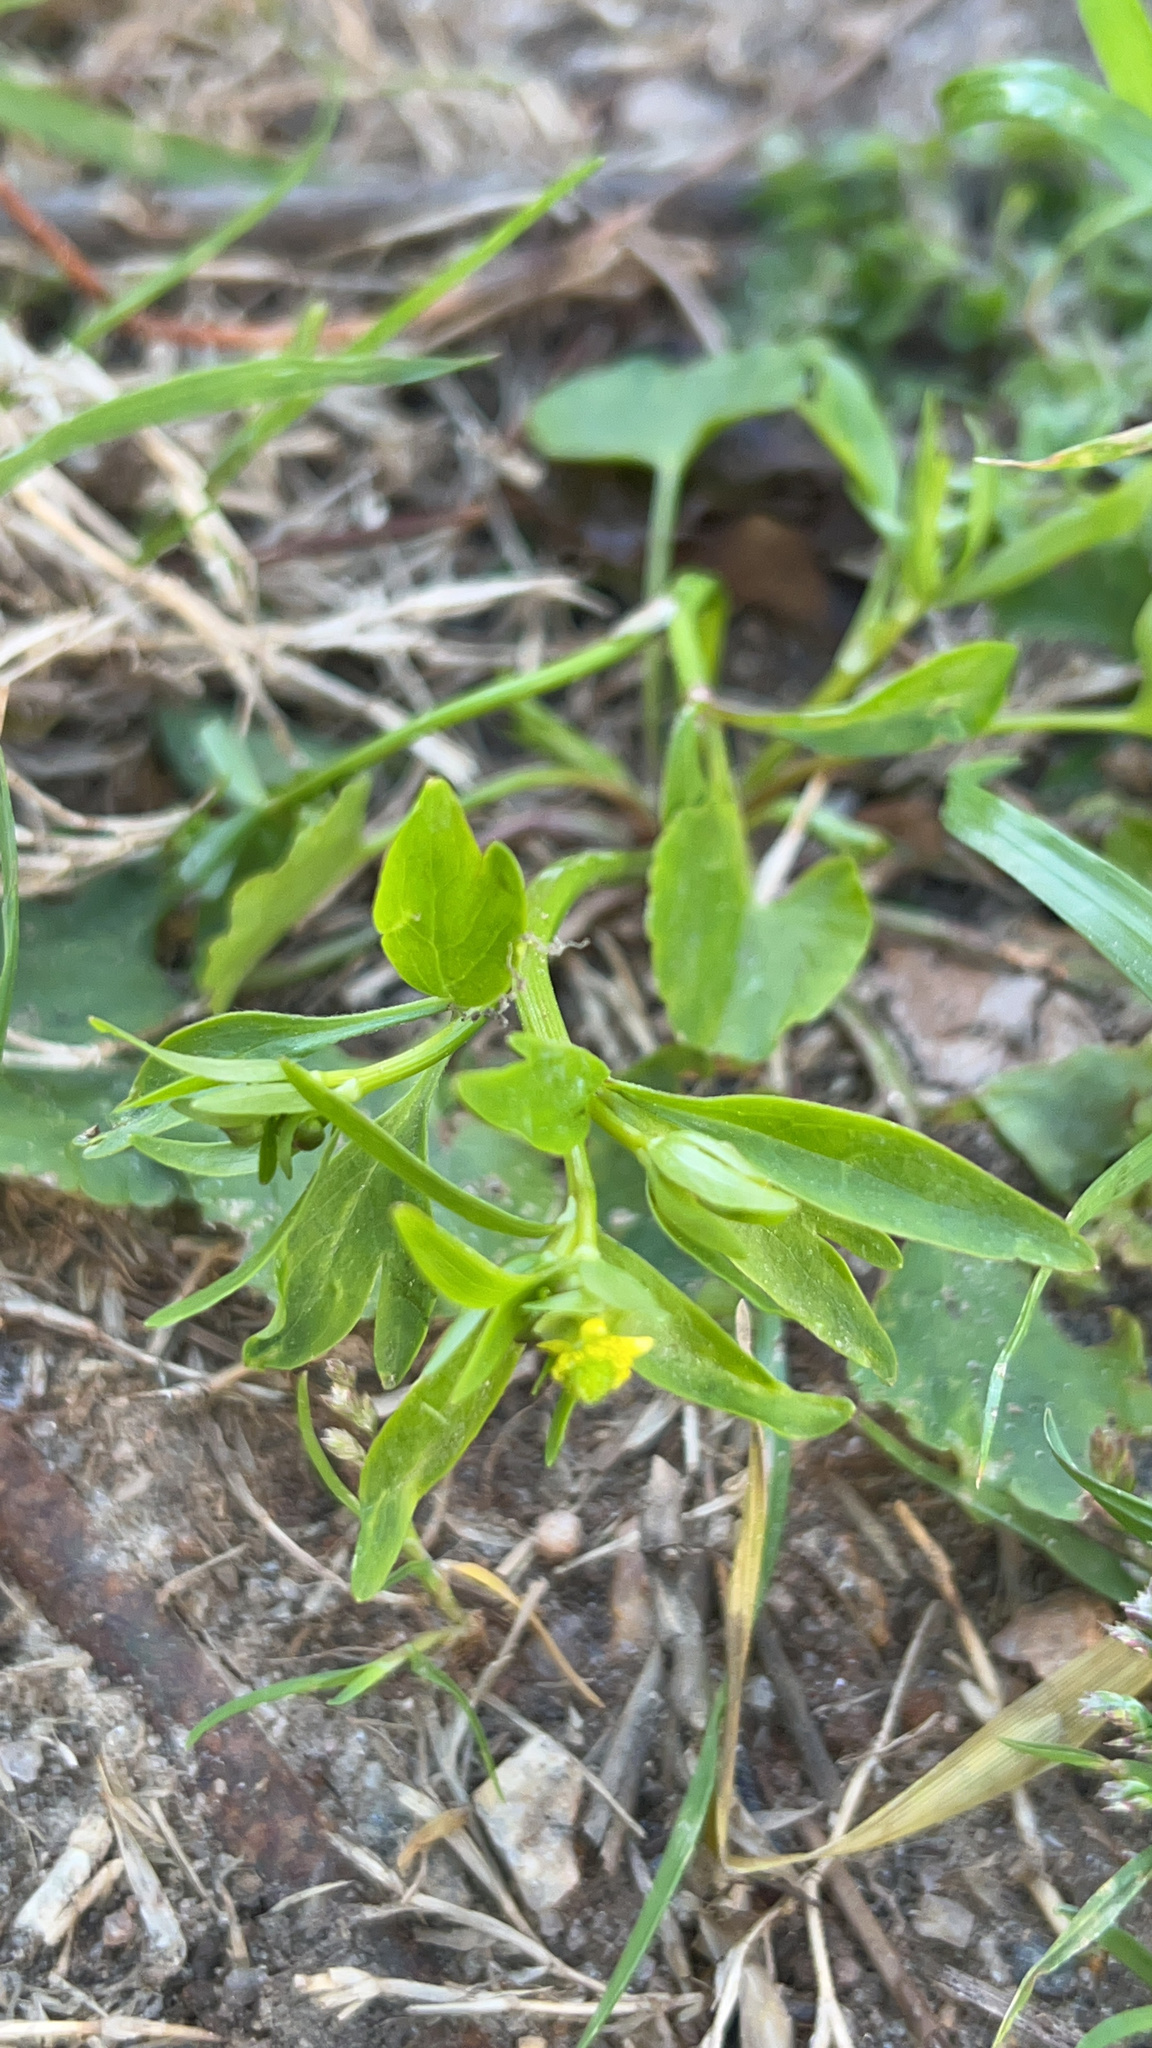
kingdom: Plantae
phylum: Tracheophyta
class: Magnoliopsida
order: Ranunculales
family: Ranunculaceae
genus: Ranunculus
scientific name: Ranunculus abortivus
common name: Early wood buttercup
